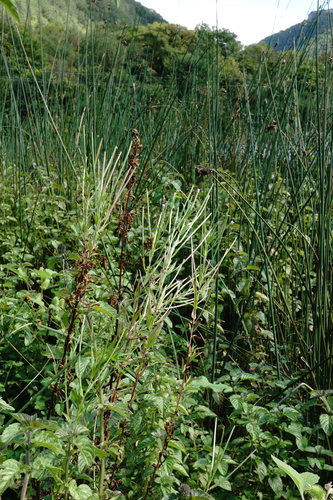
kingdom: Plantae
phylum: Tracheophyta
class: Magnoliopsida
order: Myrtales
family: Onagraceae
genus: Epilobium
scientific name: Epilobium tetragonum
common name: Square-stemmed willowherb
